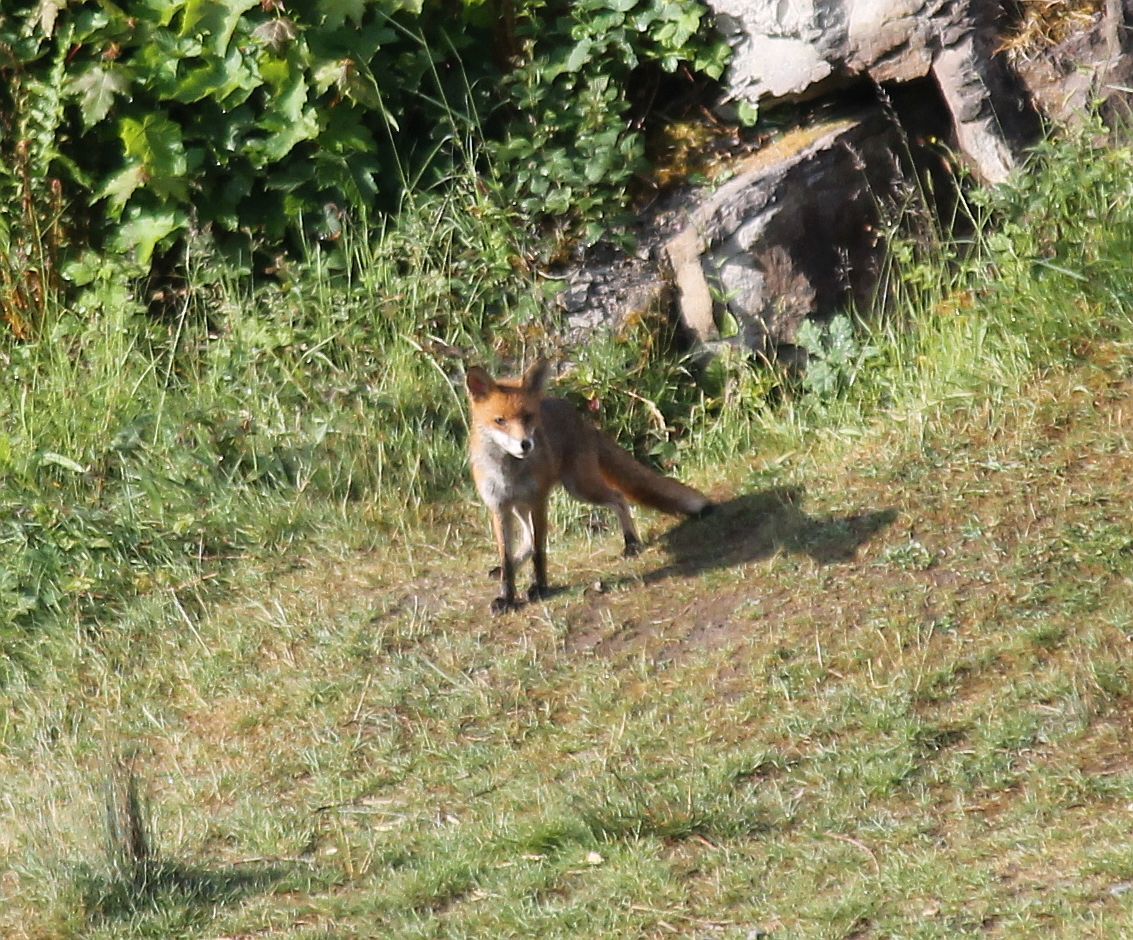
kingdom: Animalia
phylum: Chordata
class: Mammalia
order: Carnivora
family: Canidae
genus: Vulpes
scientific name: Vulpes vulpes
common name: Red fox
